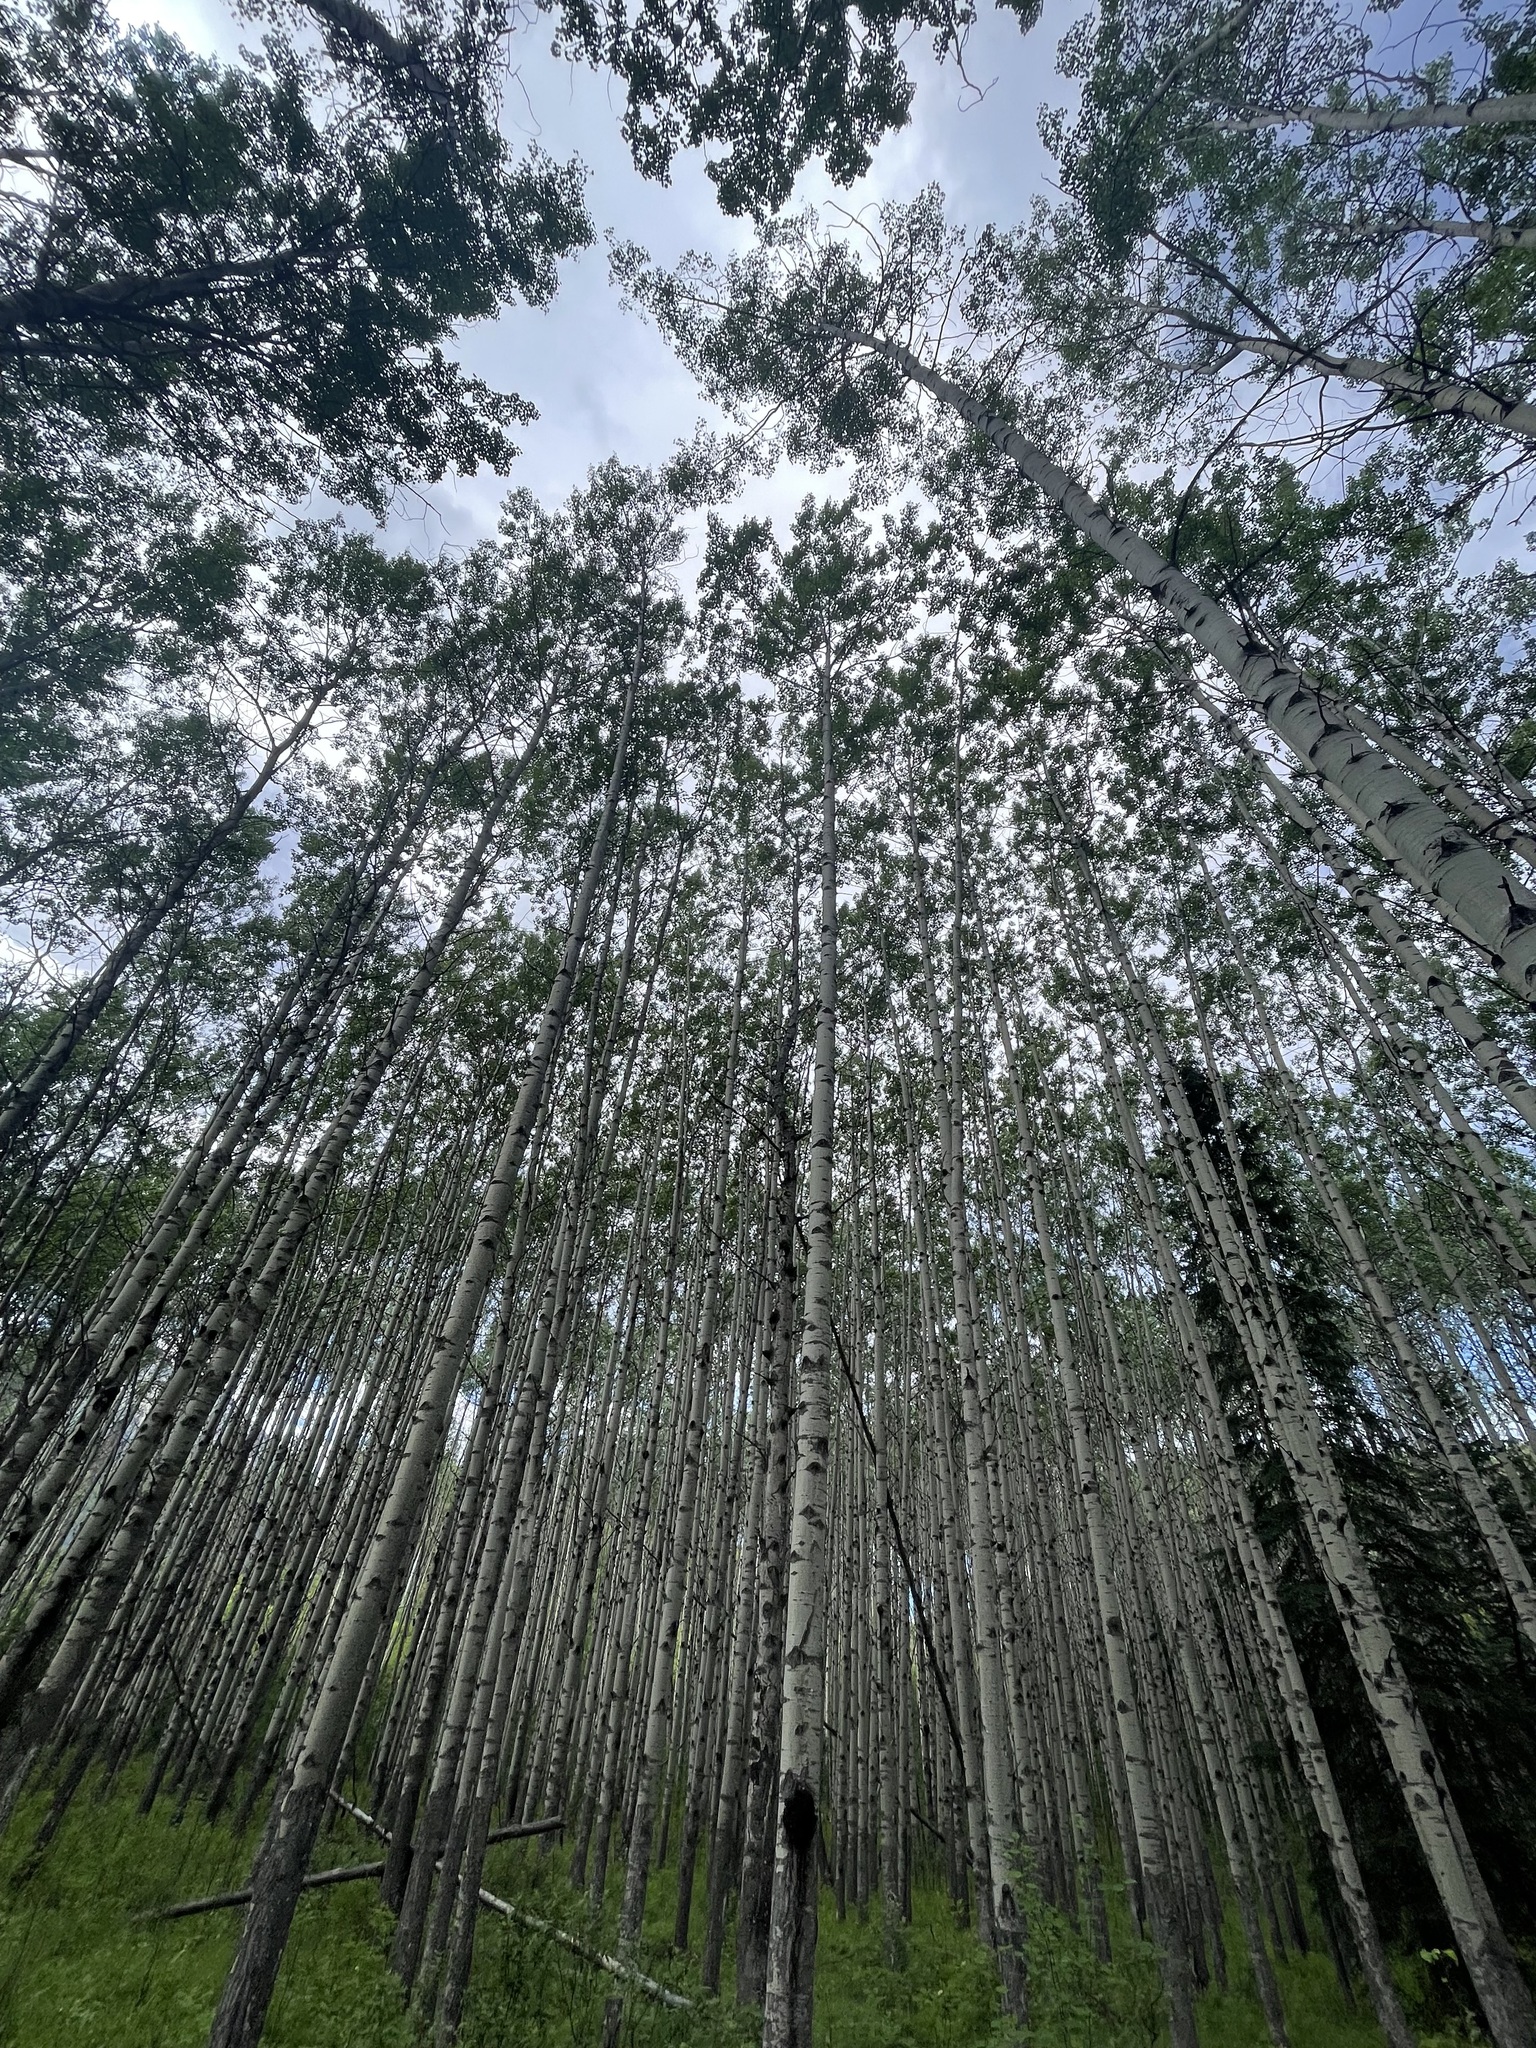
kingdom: Plantae
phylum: Tracheophyta
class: Magnoliopsida
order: Malpighiales
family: Salicaceae
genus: Populus
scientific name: Populus tremuloides
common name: Quaking aspen
